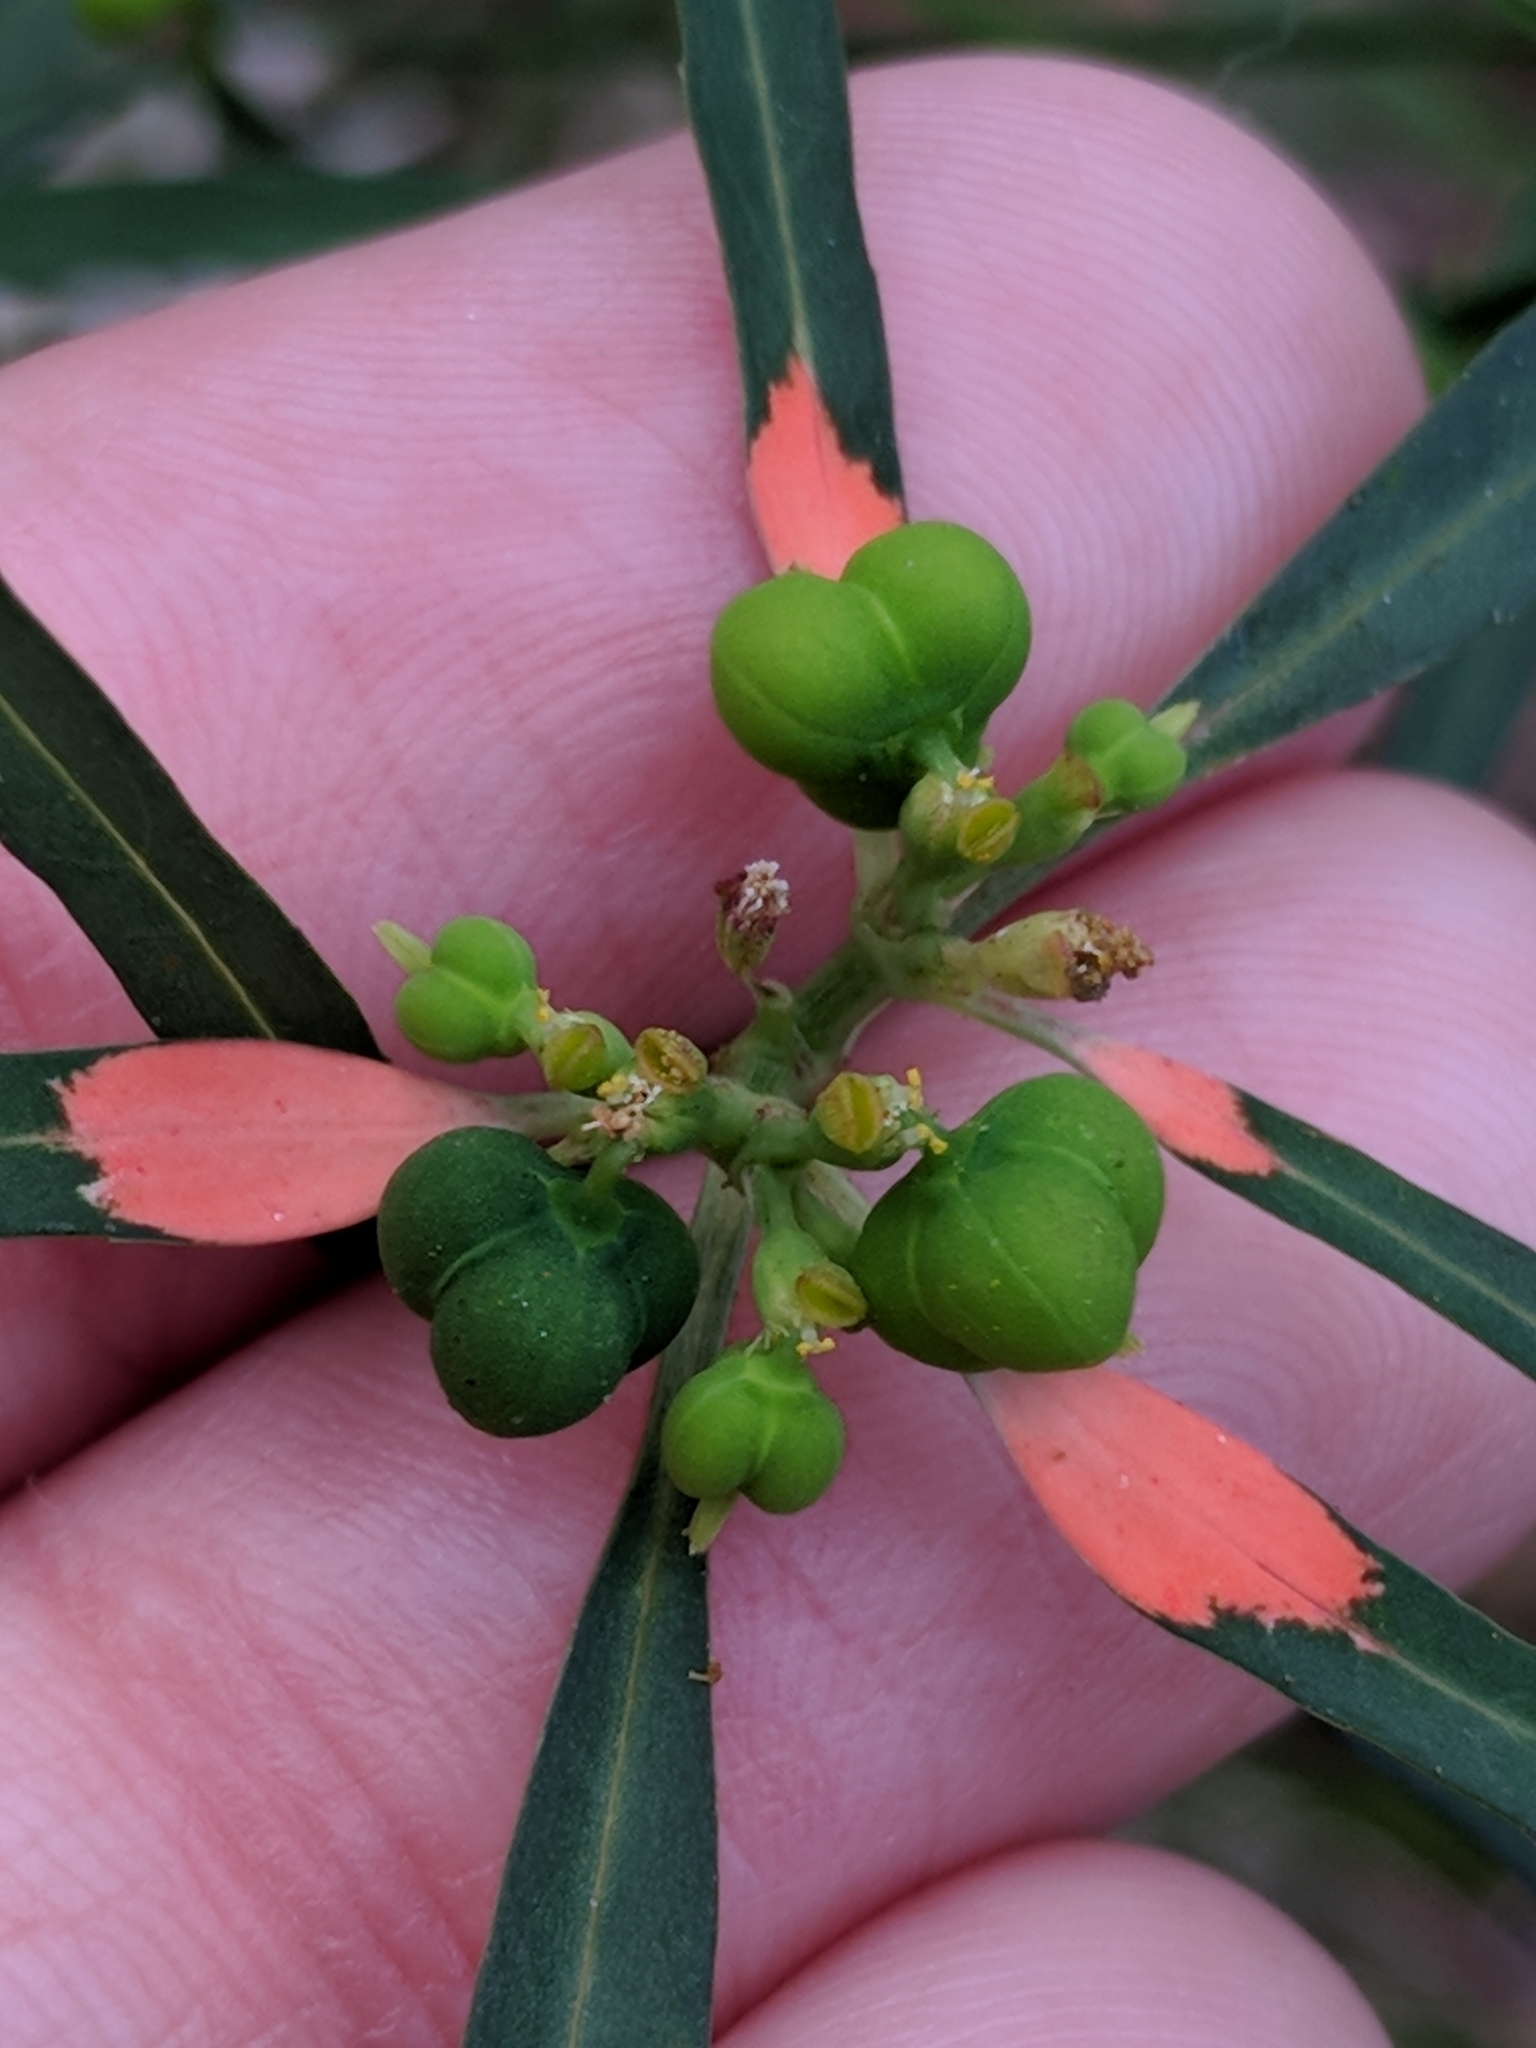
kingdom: Plantae
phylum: Tracheophyta
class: Magnoliopsida
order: Malpighiales
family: Euphorbiaceae
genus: Euphorbia
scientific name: Euphorbia heterophylla
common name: Mexican fireplant
